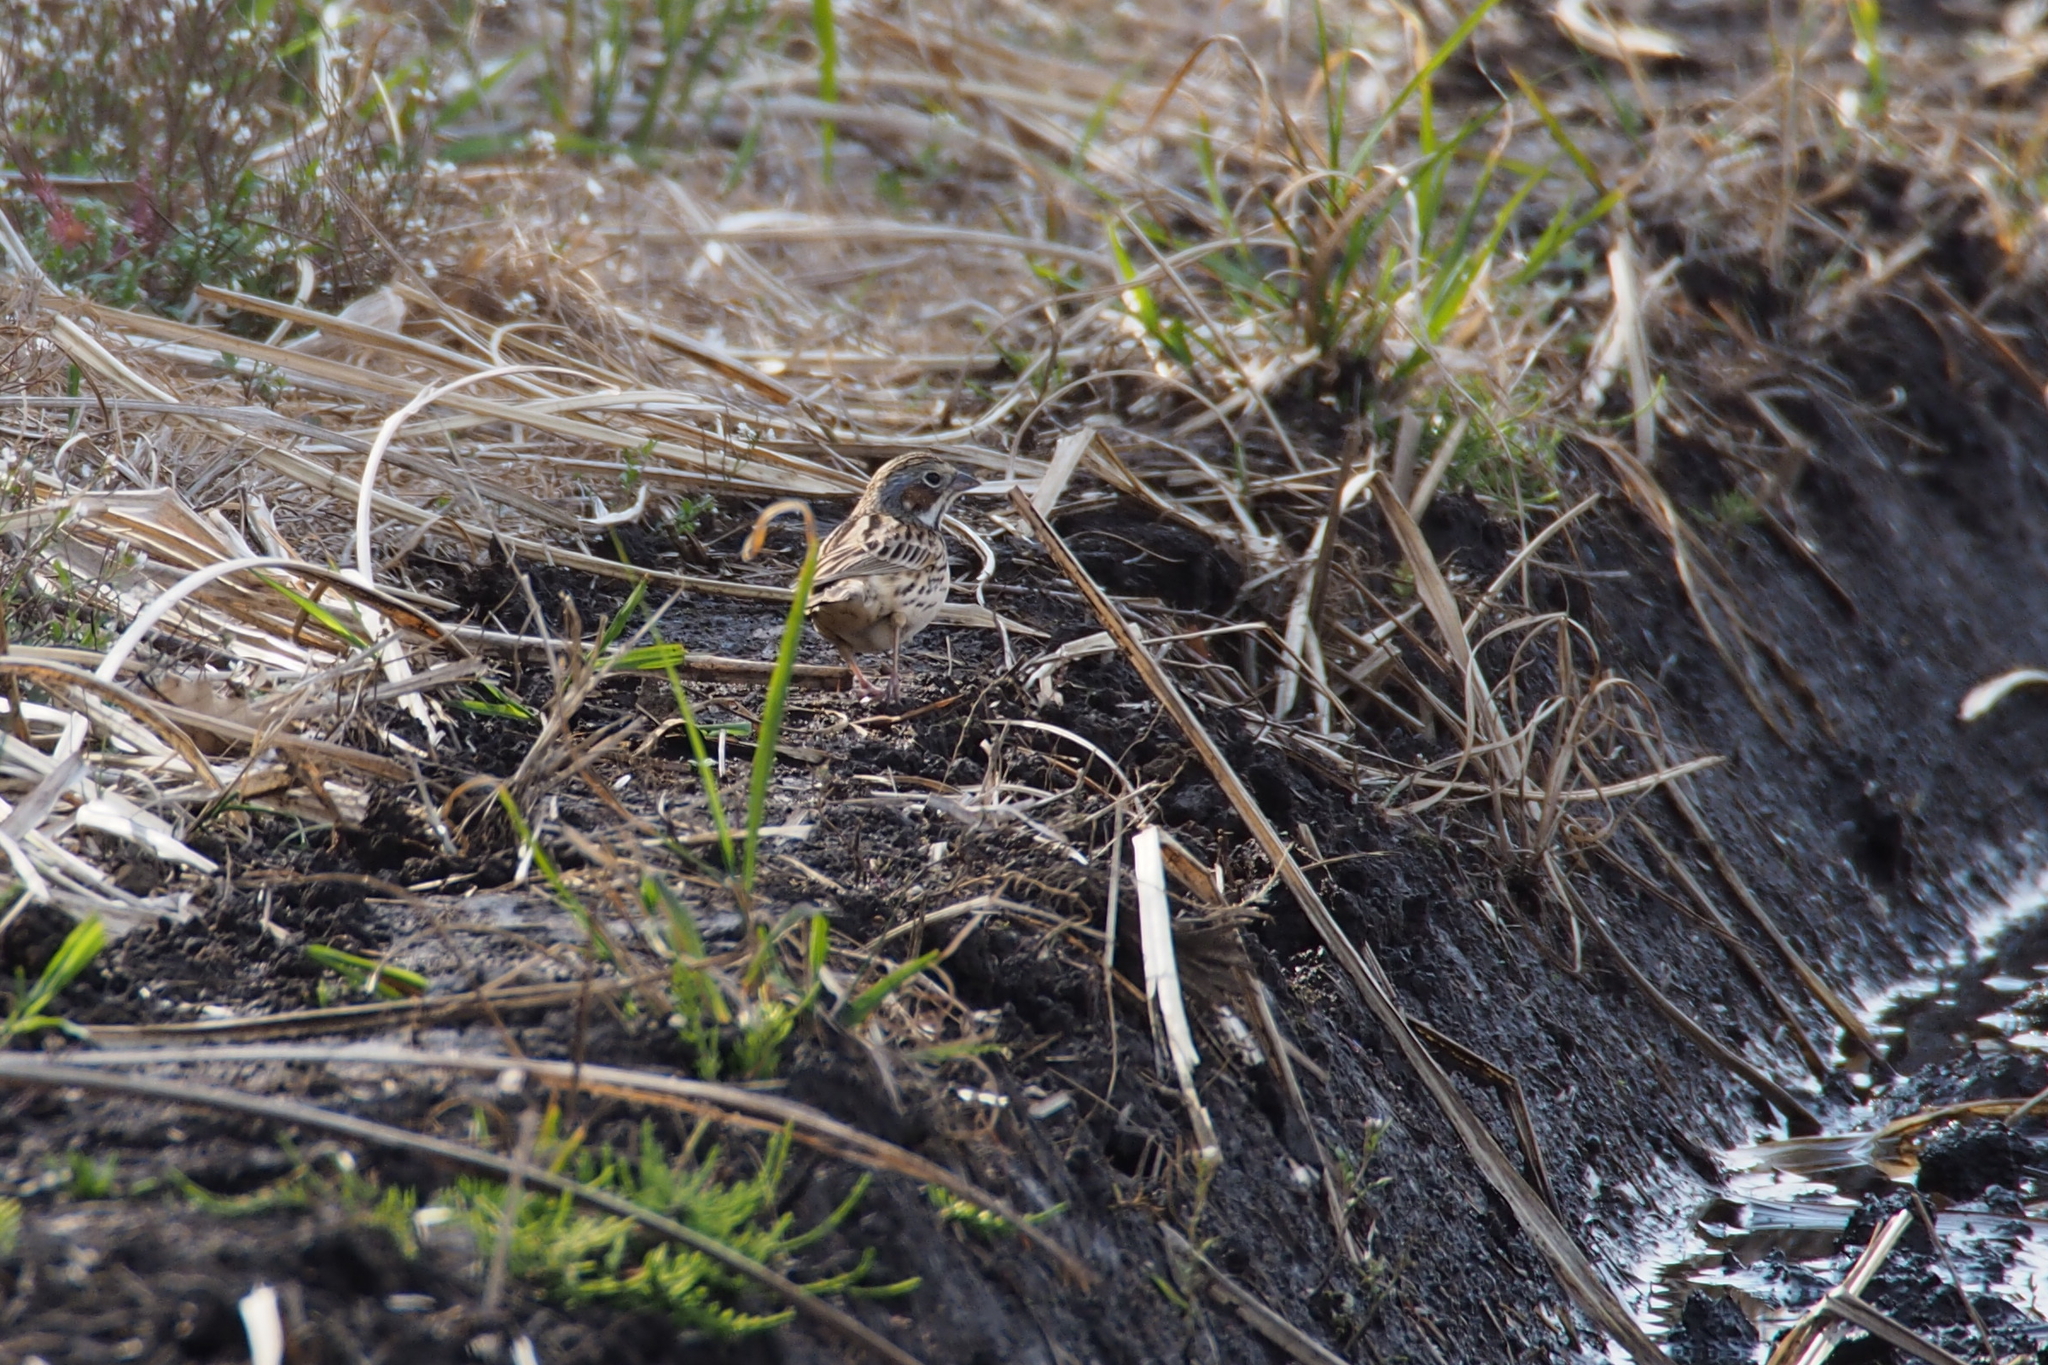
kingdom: Animalia
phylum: Chordata
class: Aves
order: Passeriformes
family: Emberizidae
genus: Emberiza
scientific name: Emberiza fucata
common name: Chestnut-eared bunting
